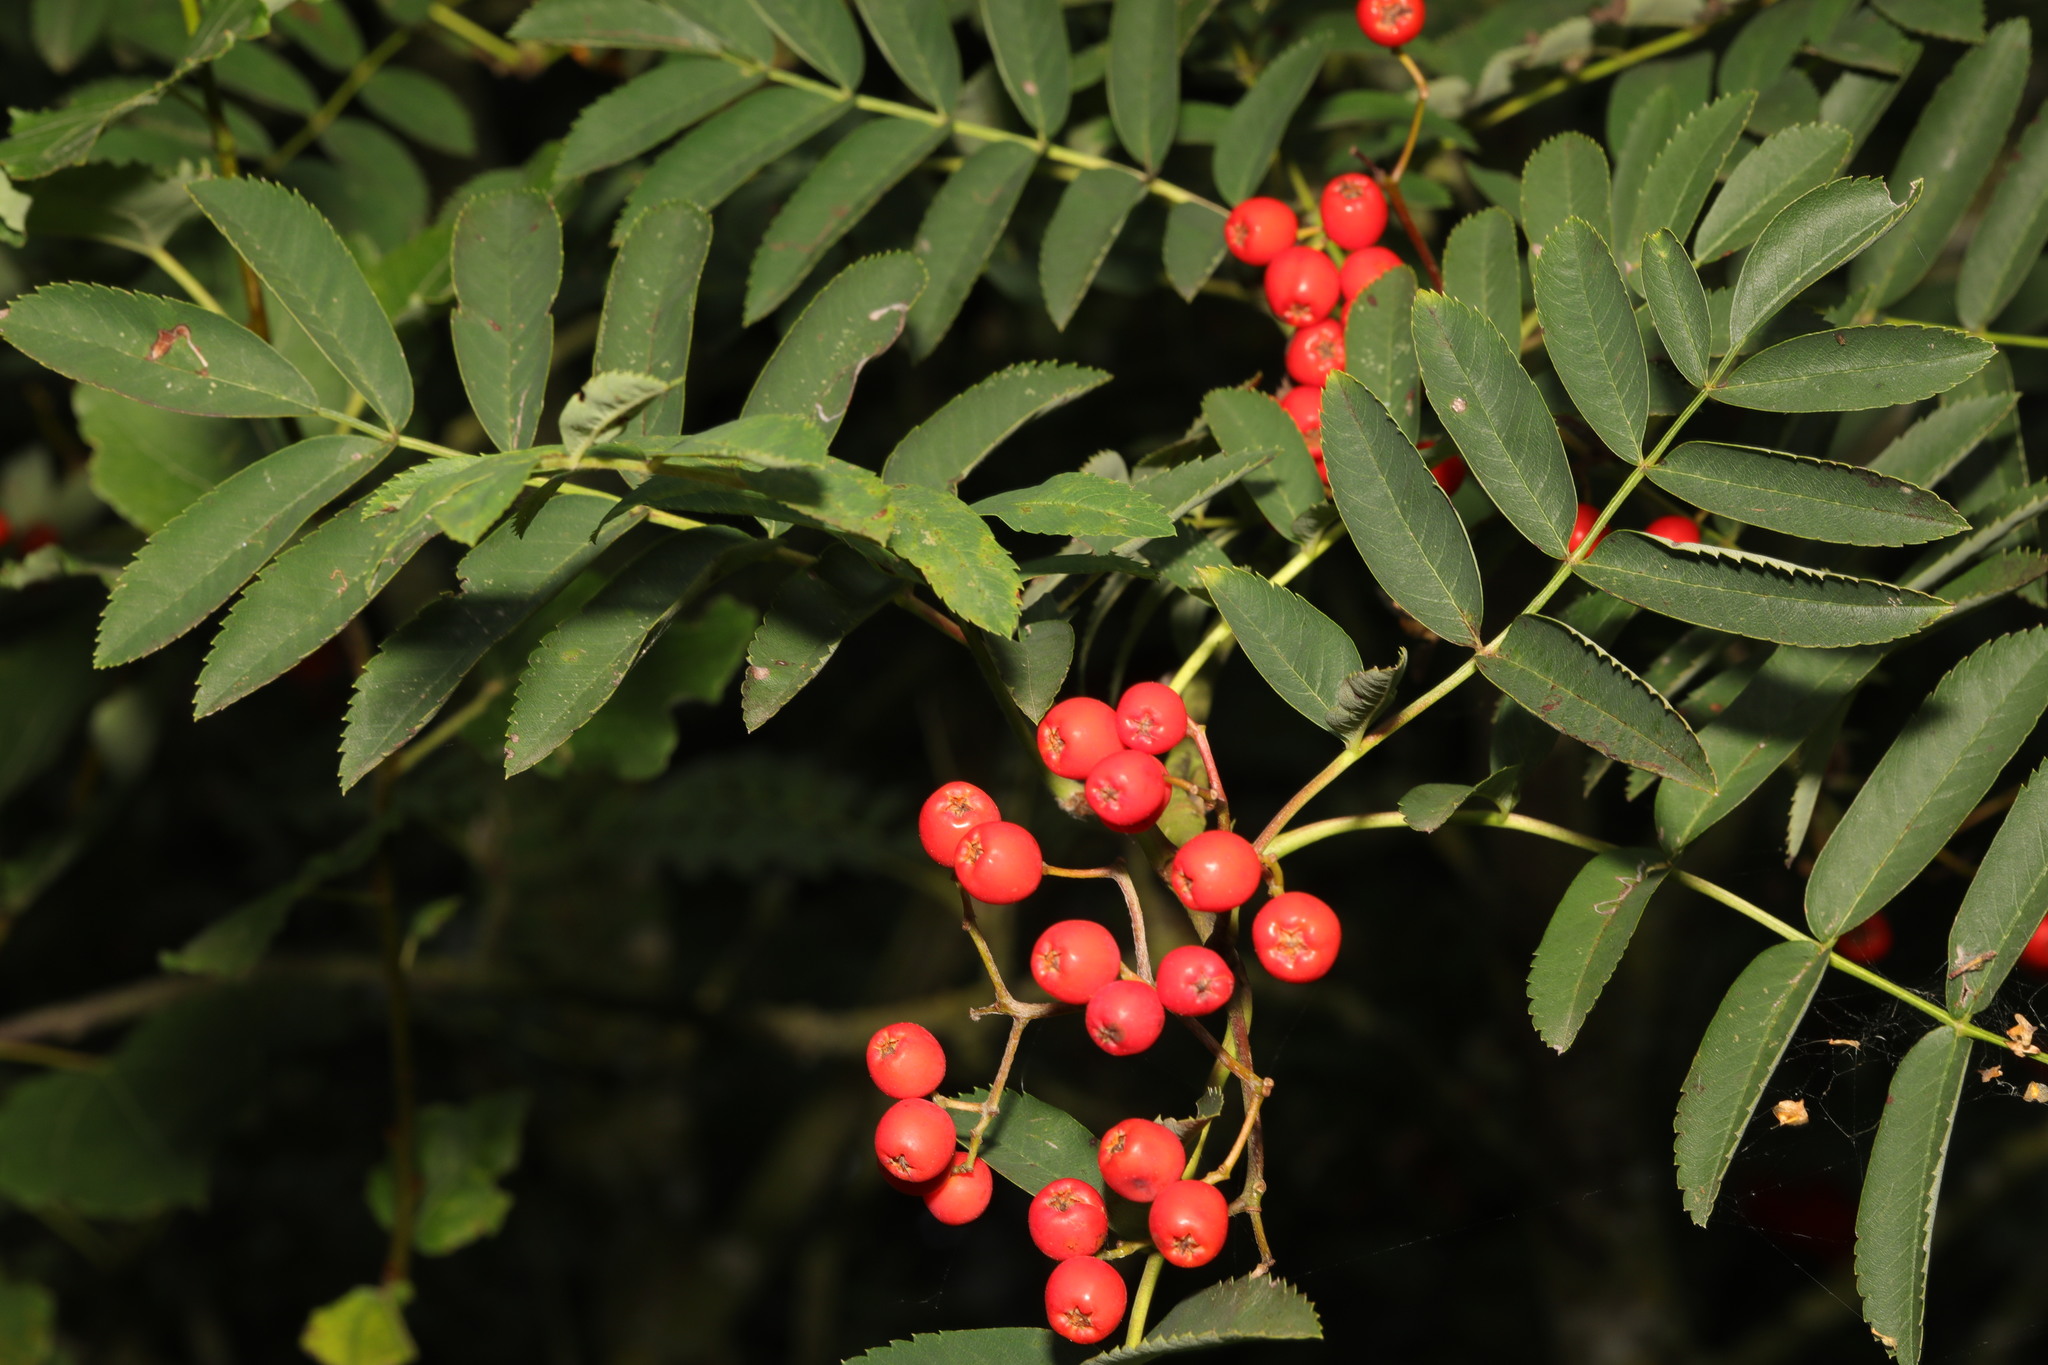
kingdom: Plantae
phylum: Tracheophyta
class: Magnoliopsida
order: Rosales
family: Rosaceae
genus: Sorbus
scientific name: Sorbus aucuparia
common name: Rowan
